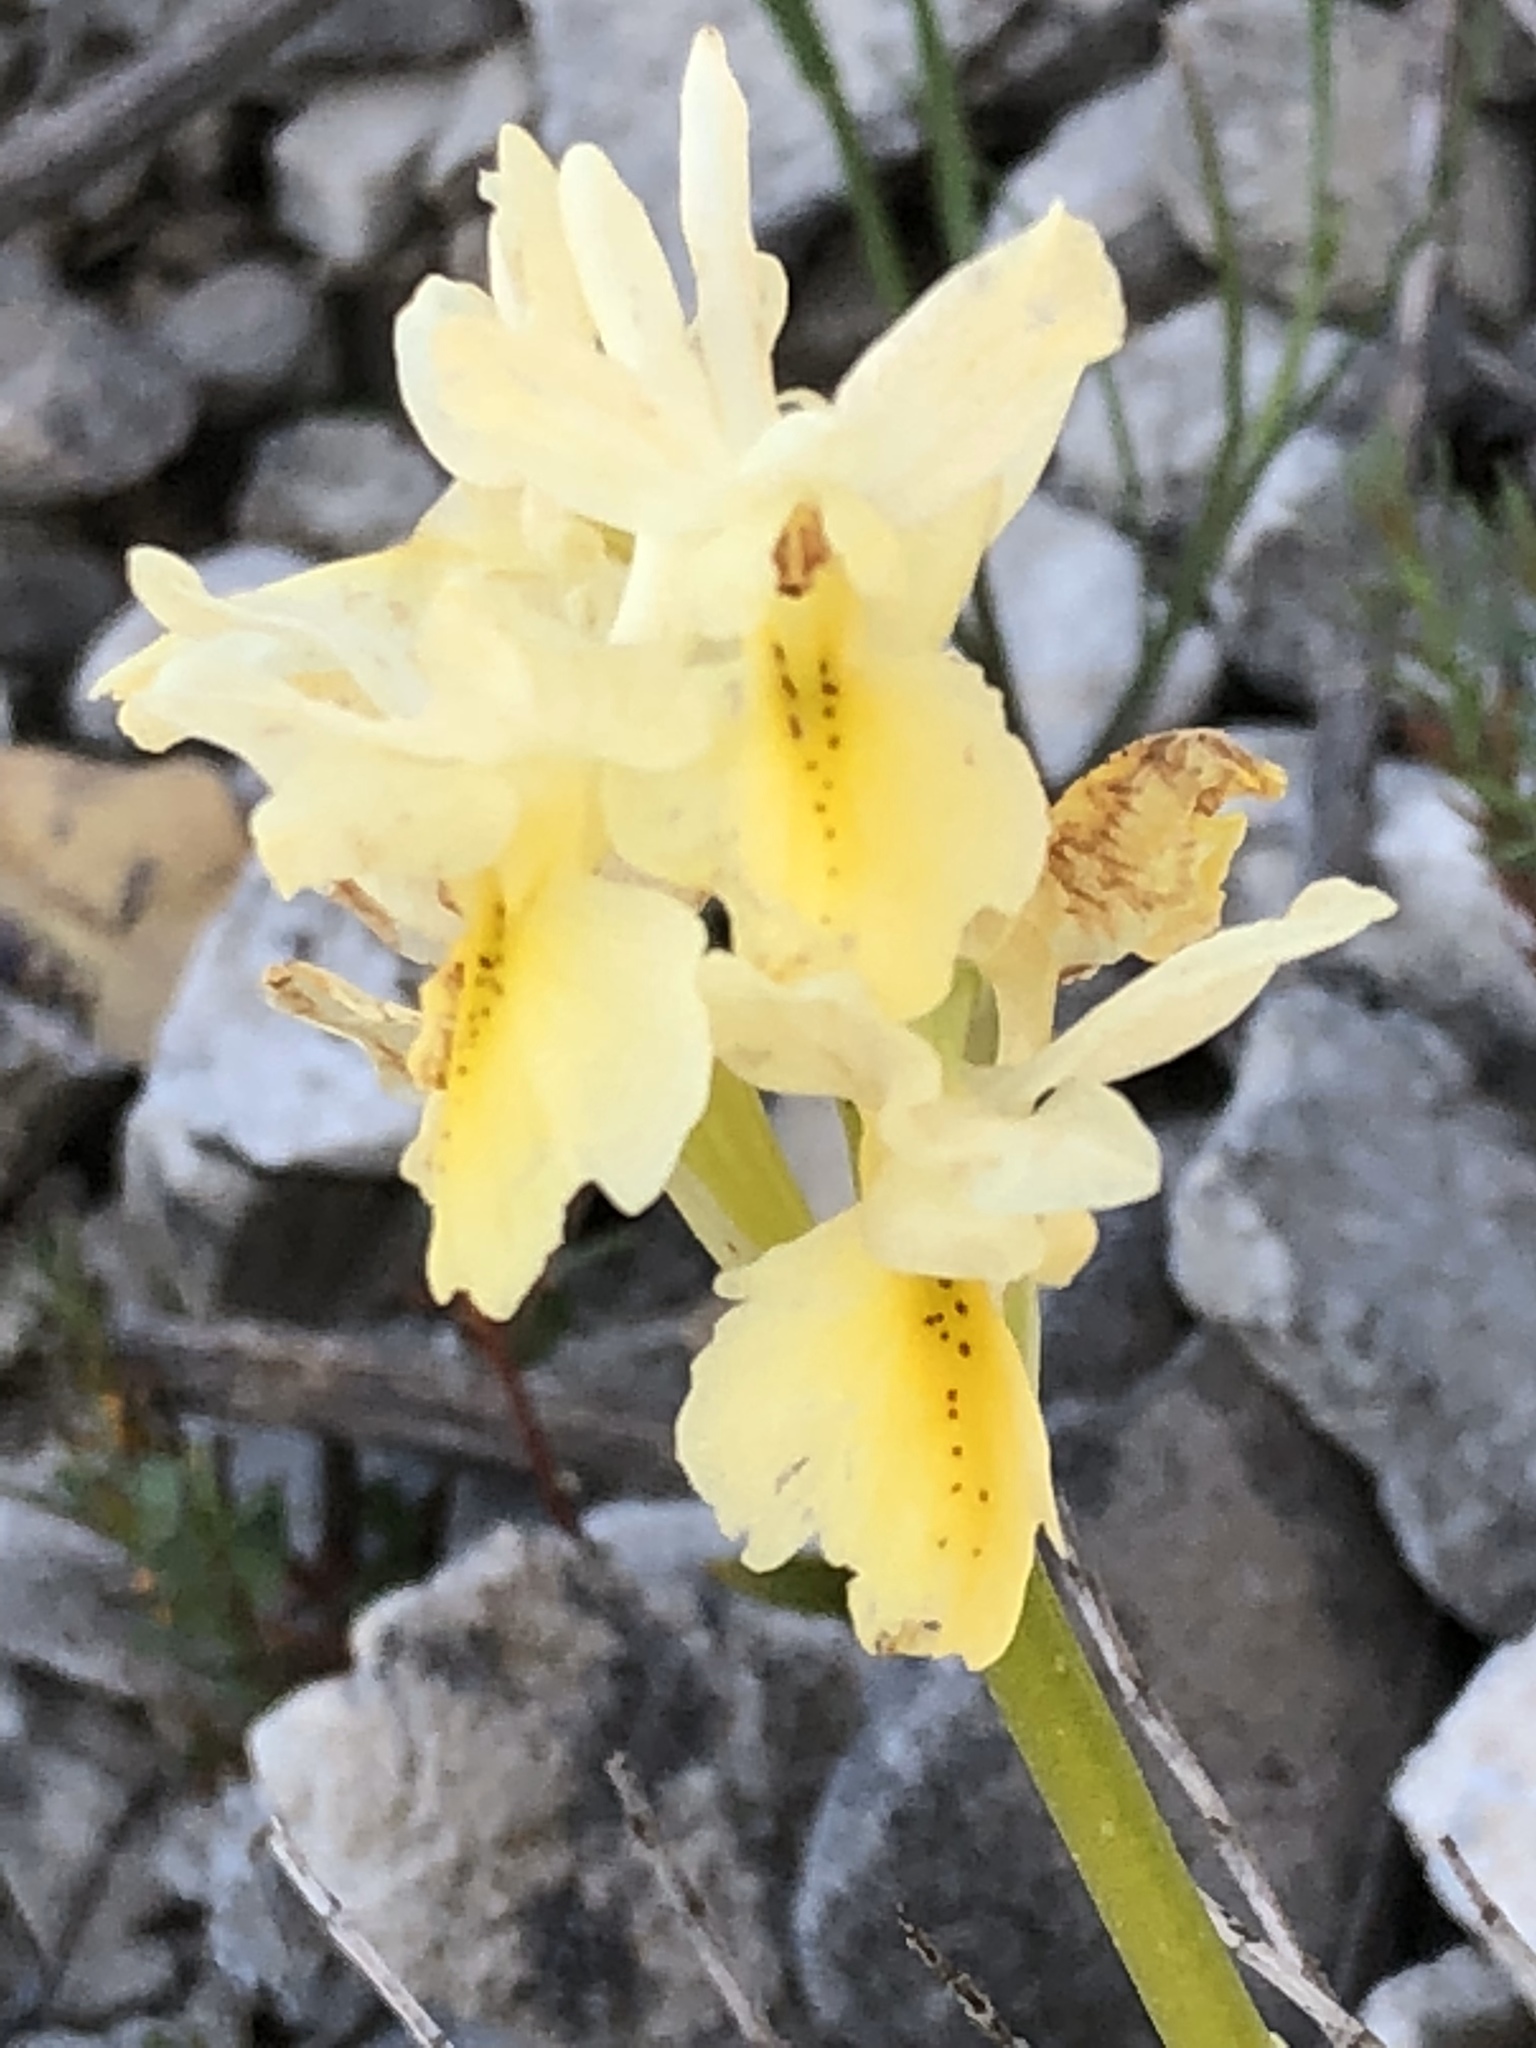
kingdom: Plantae
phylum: Tracheophyta
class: Liliopsida
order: Asparagales
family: Orchidaceae
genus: Orchis
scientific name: Orchis pauciflora
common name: Few-flowered orchid
